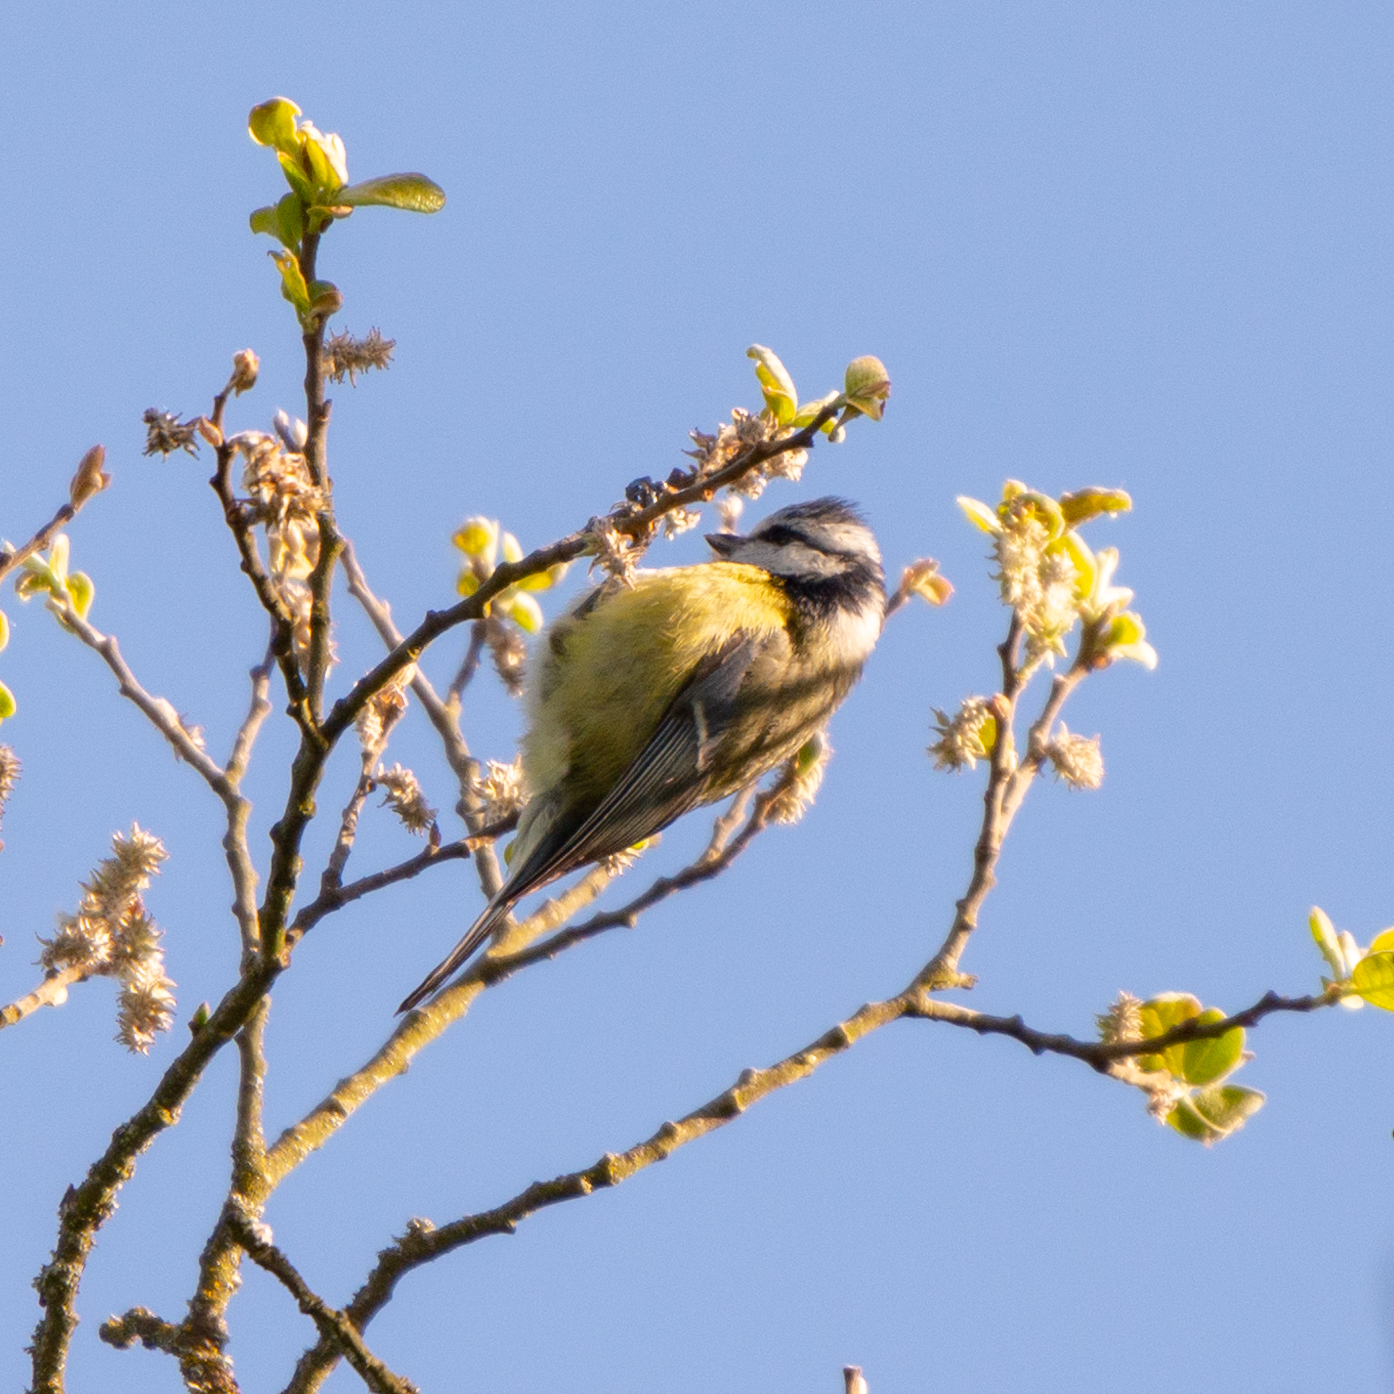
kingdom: Animalia
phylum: Chordata
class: Aves
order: Passeriformes
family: Paridae
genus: Cyanistes
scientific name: Cyanistes caeruleus
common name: Eurasian blue tit
